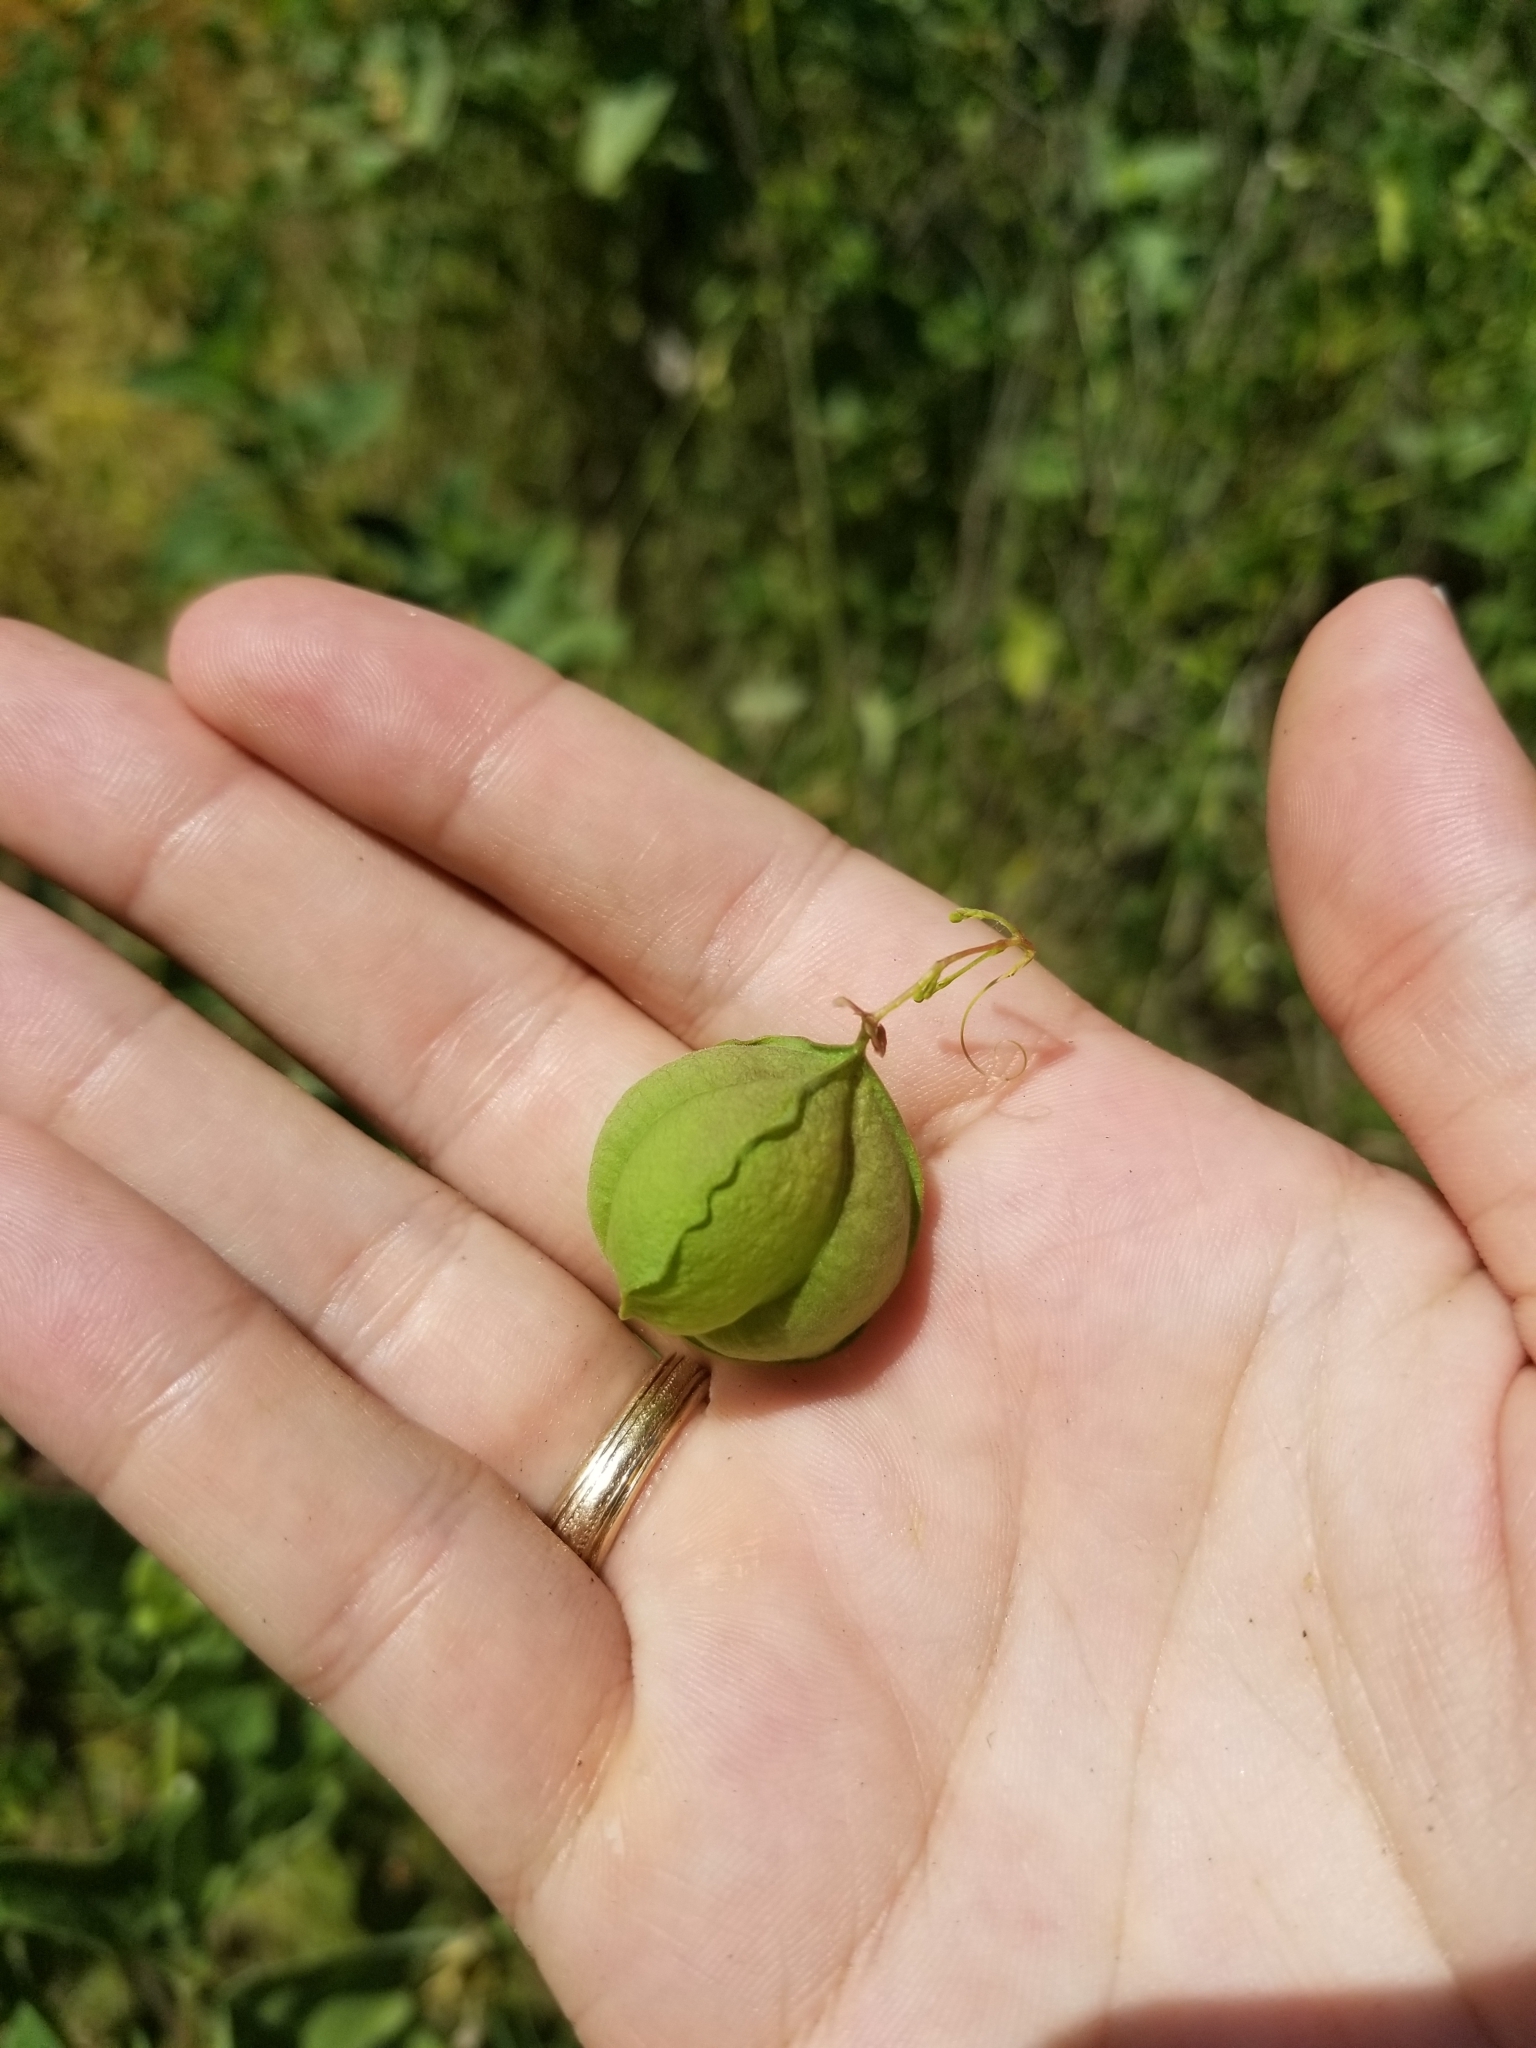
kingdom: Plantae
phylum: Tracheophyta
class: Magnoliopsida
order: Sapindales
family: Sapindaceae
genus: Cardiospermum
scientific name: Cardiospermum halicacabum
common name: Balloon vine
